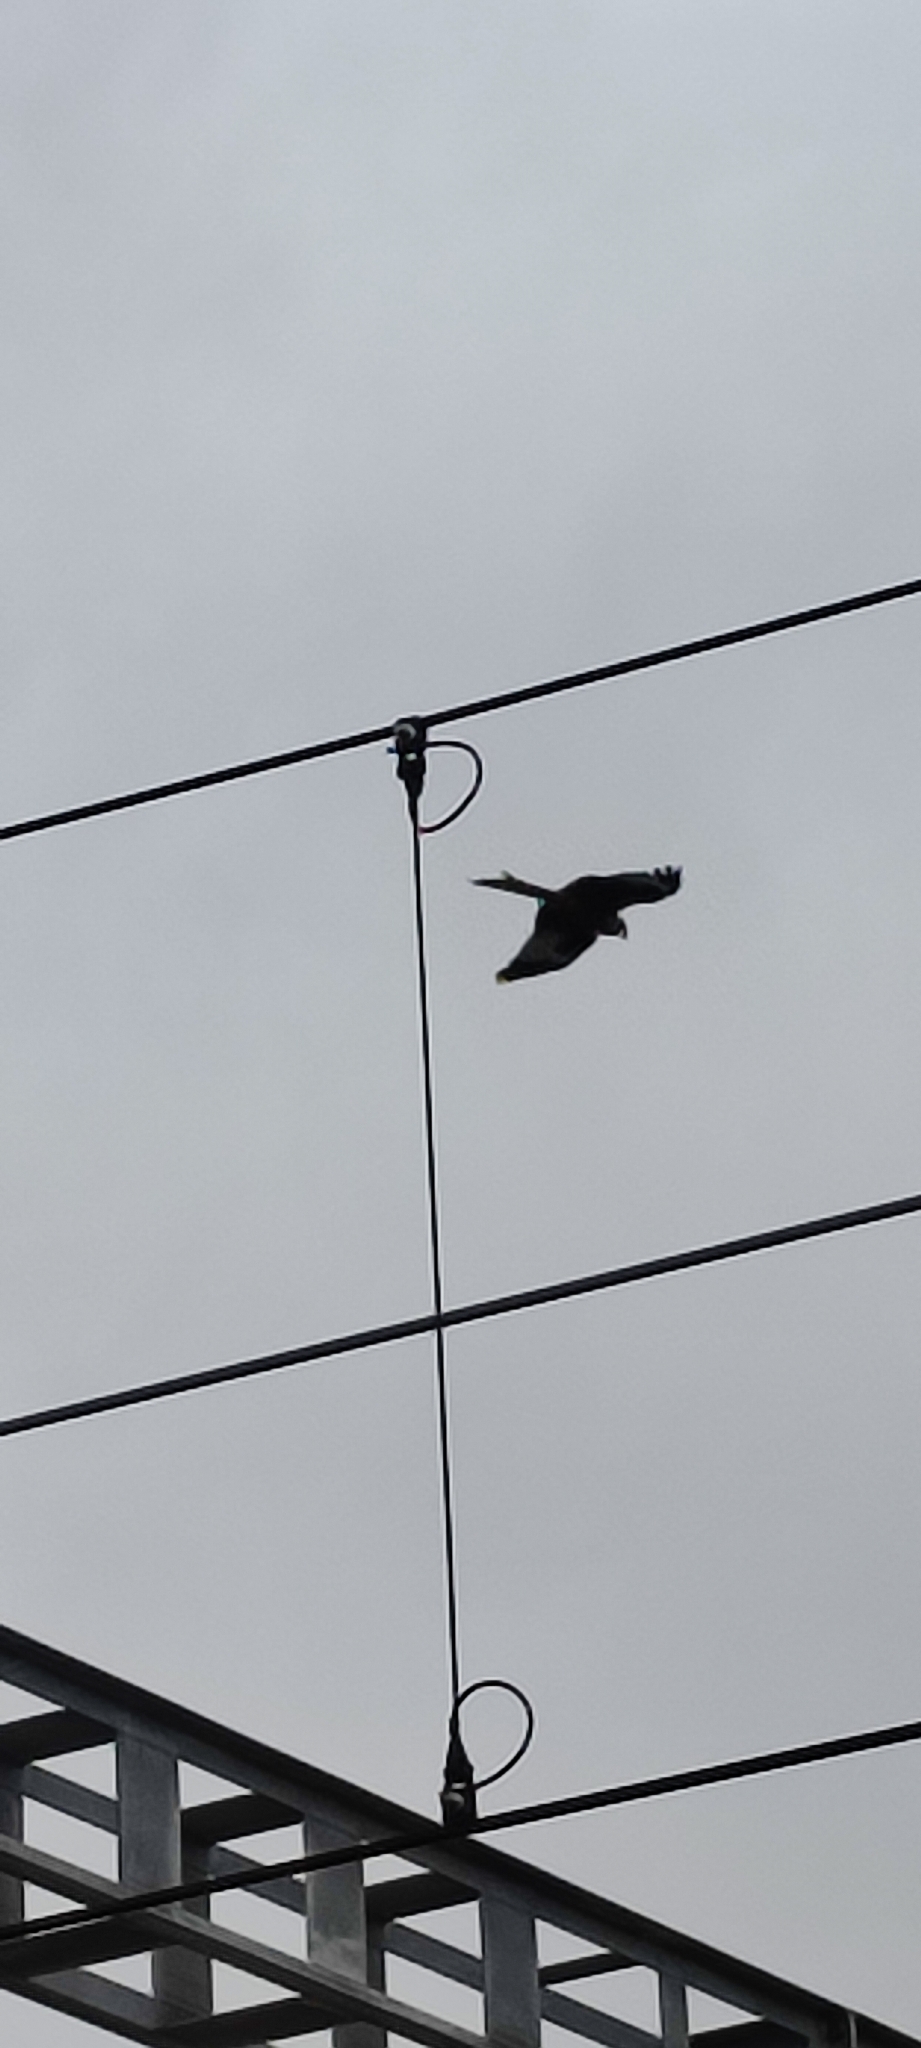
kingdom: Animalia
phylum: Chordata
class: Aves
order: Accipitriformes
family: Accipitridae
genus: Milvus
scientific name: Milvus milvus
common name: Red kite
